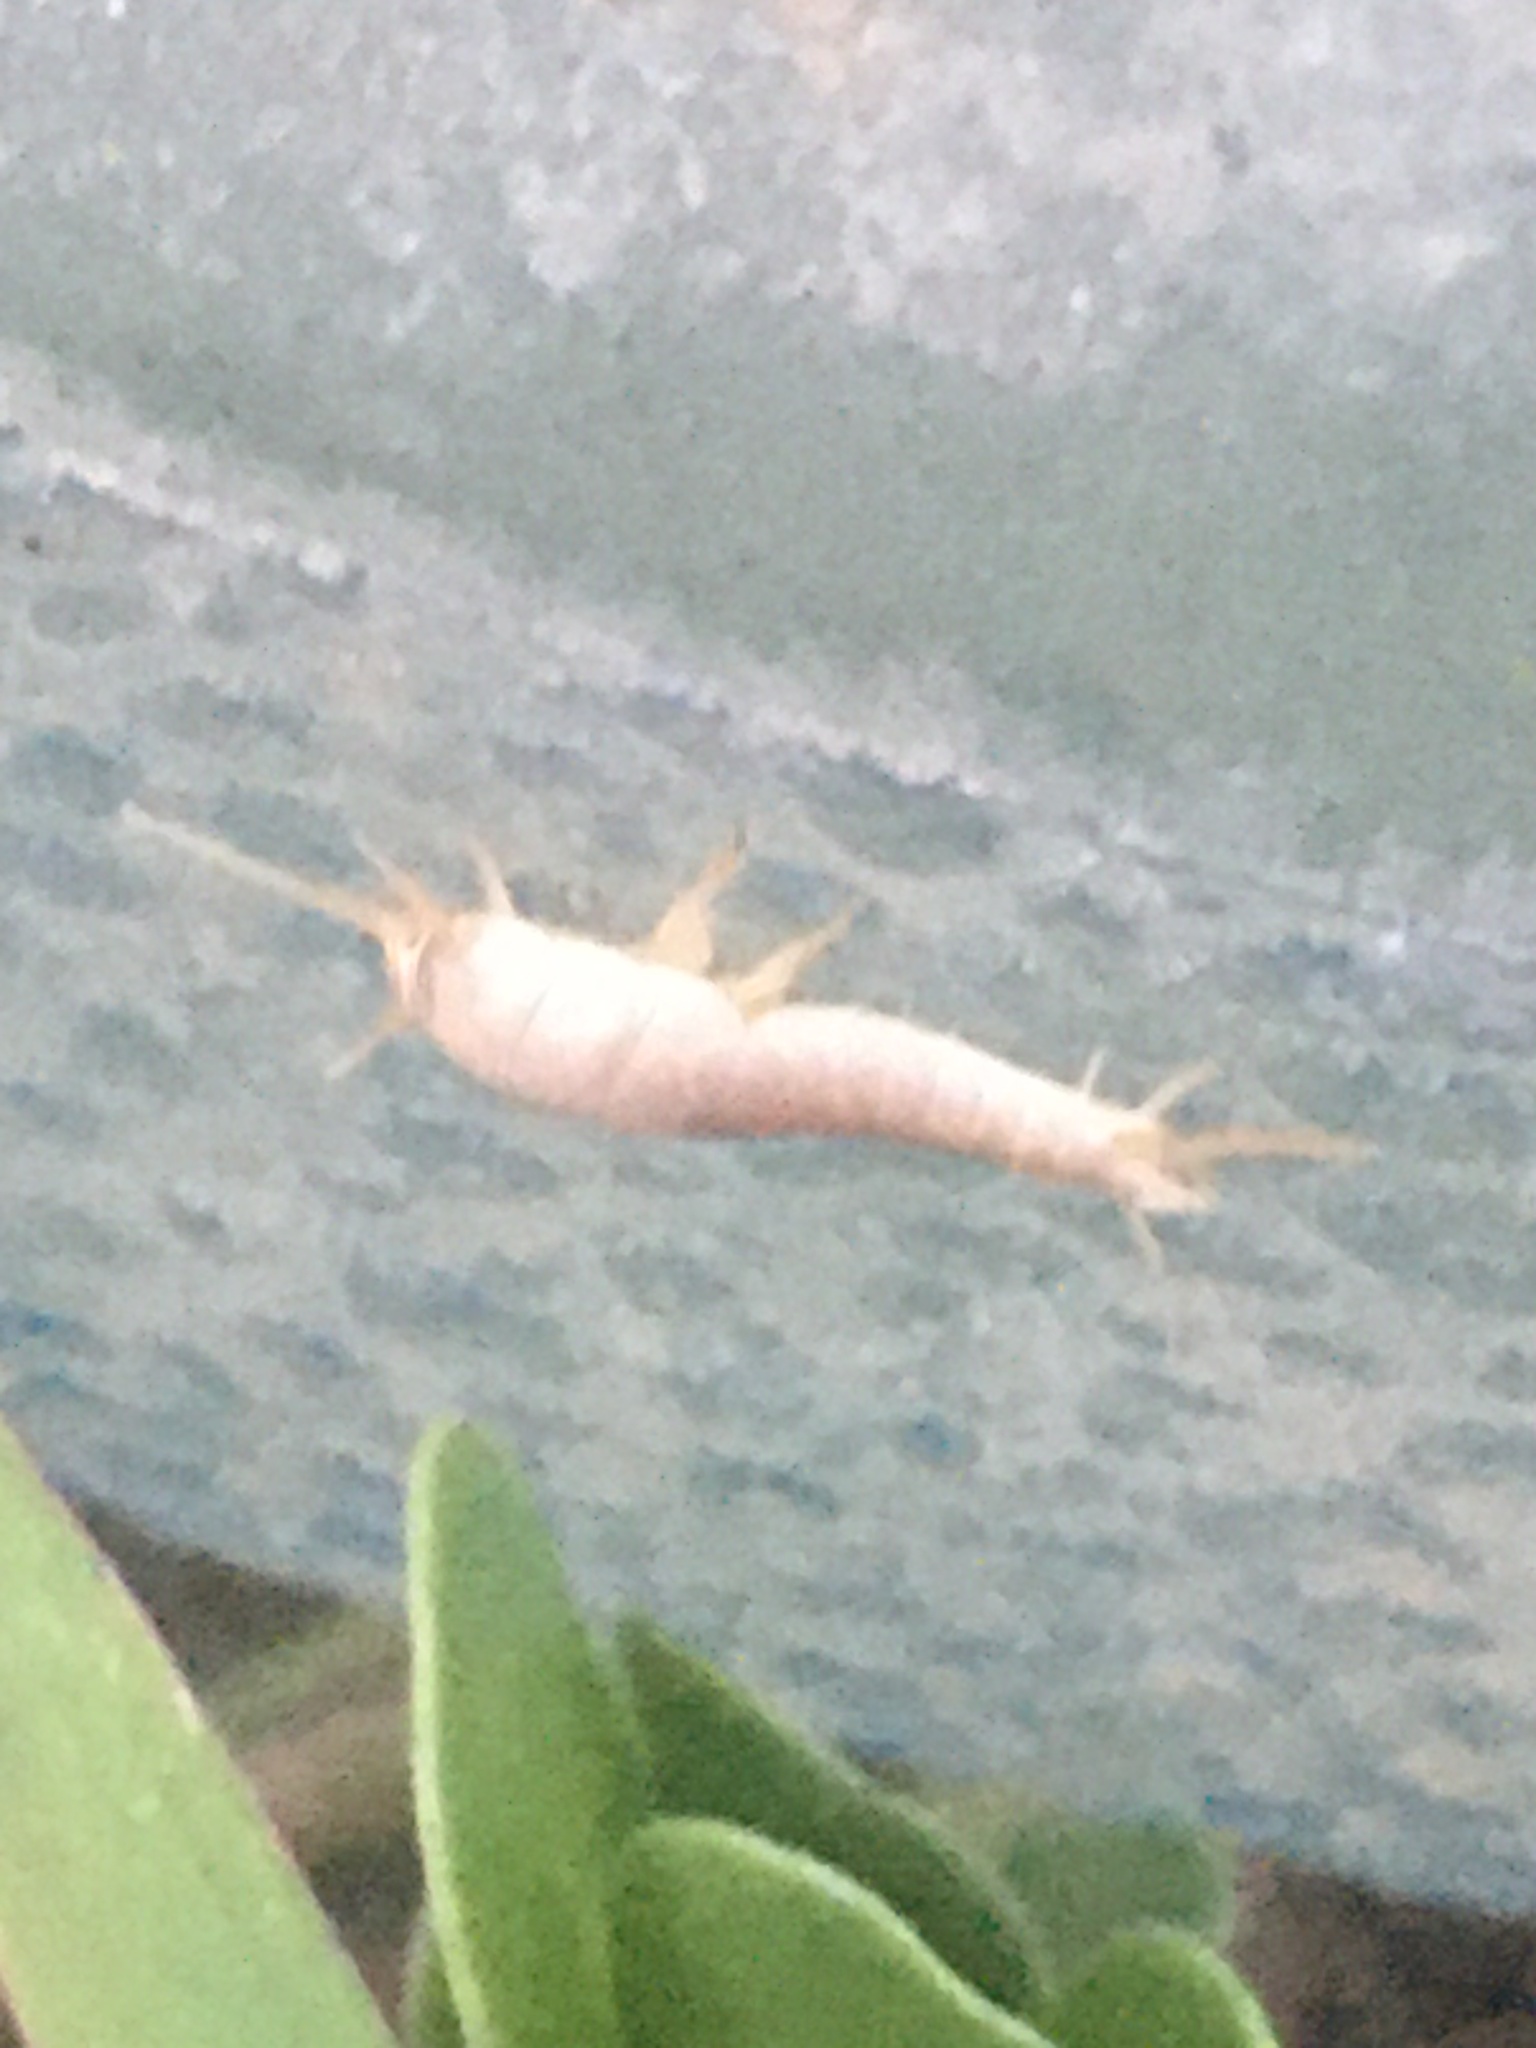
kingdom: Animalia
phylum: Arthropoda
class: Insecta
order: Zygentoma
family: Lepismatidae
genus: Lepisma
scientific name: Lepisma saccharinum
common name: Silverfish
